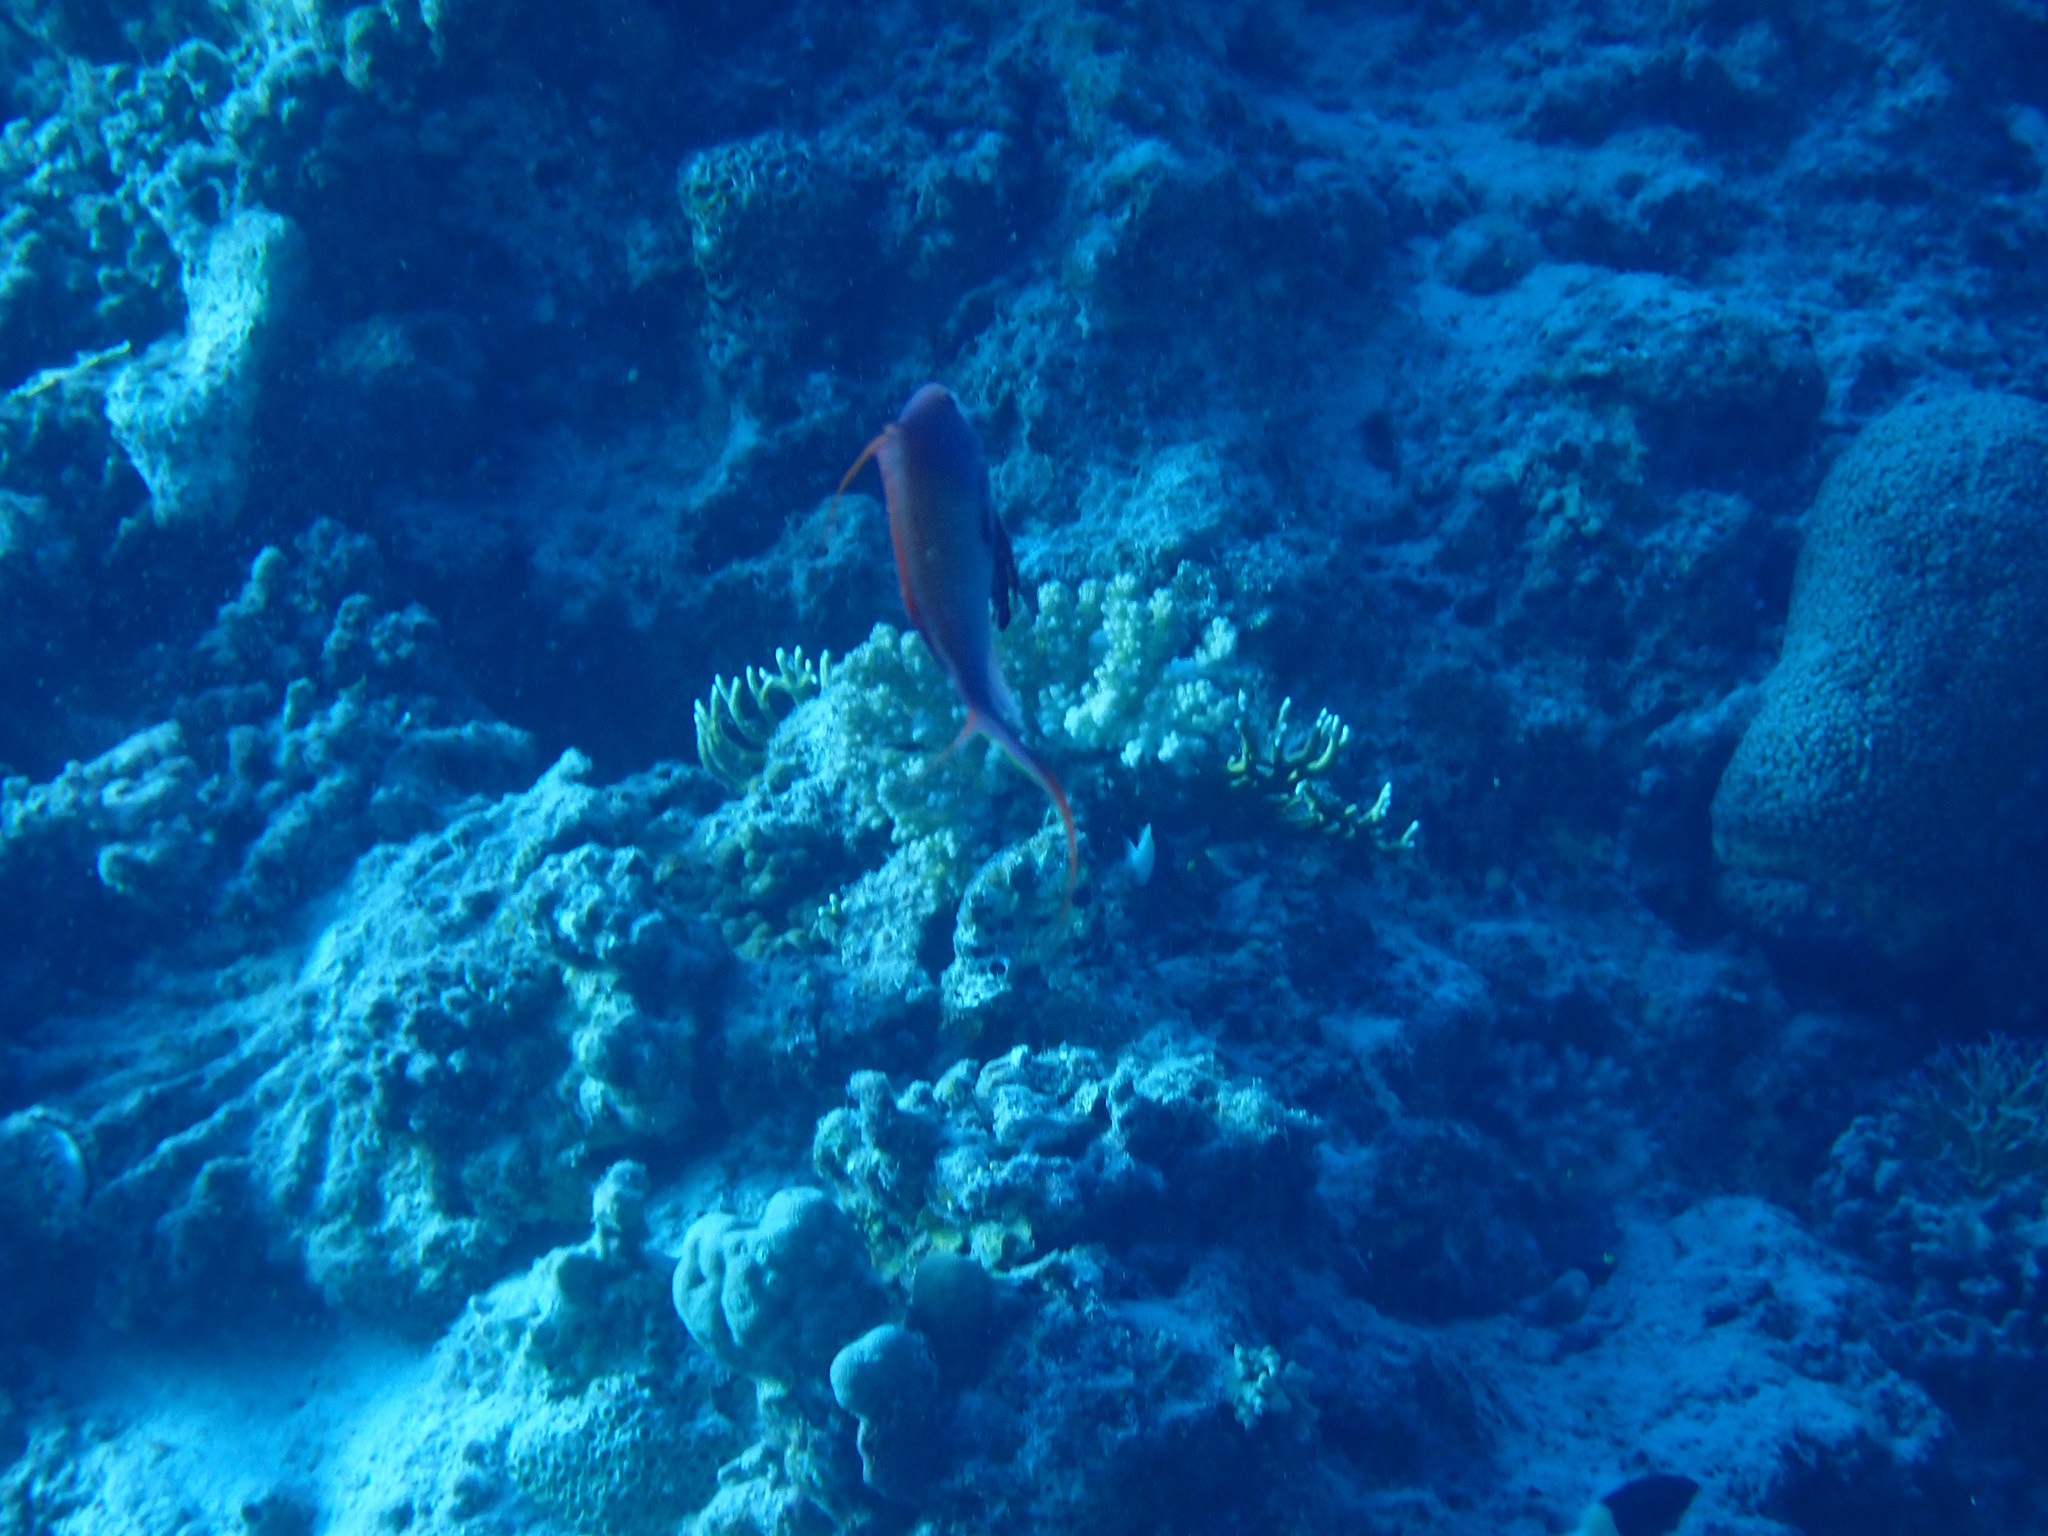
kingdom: Animalia
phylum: Chordata
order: Perciformes
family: Serranidae
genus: Pseudanthias
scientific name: Pseudanthias squamipinnis
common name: Scalefin anthias
